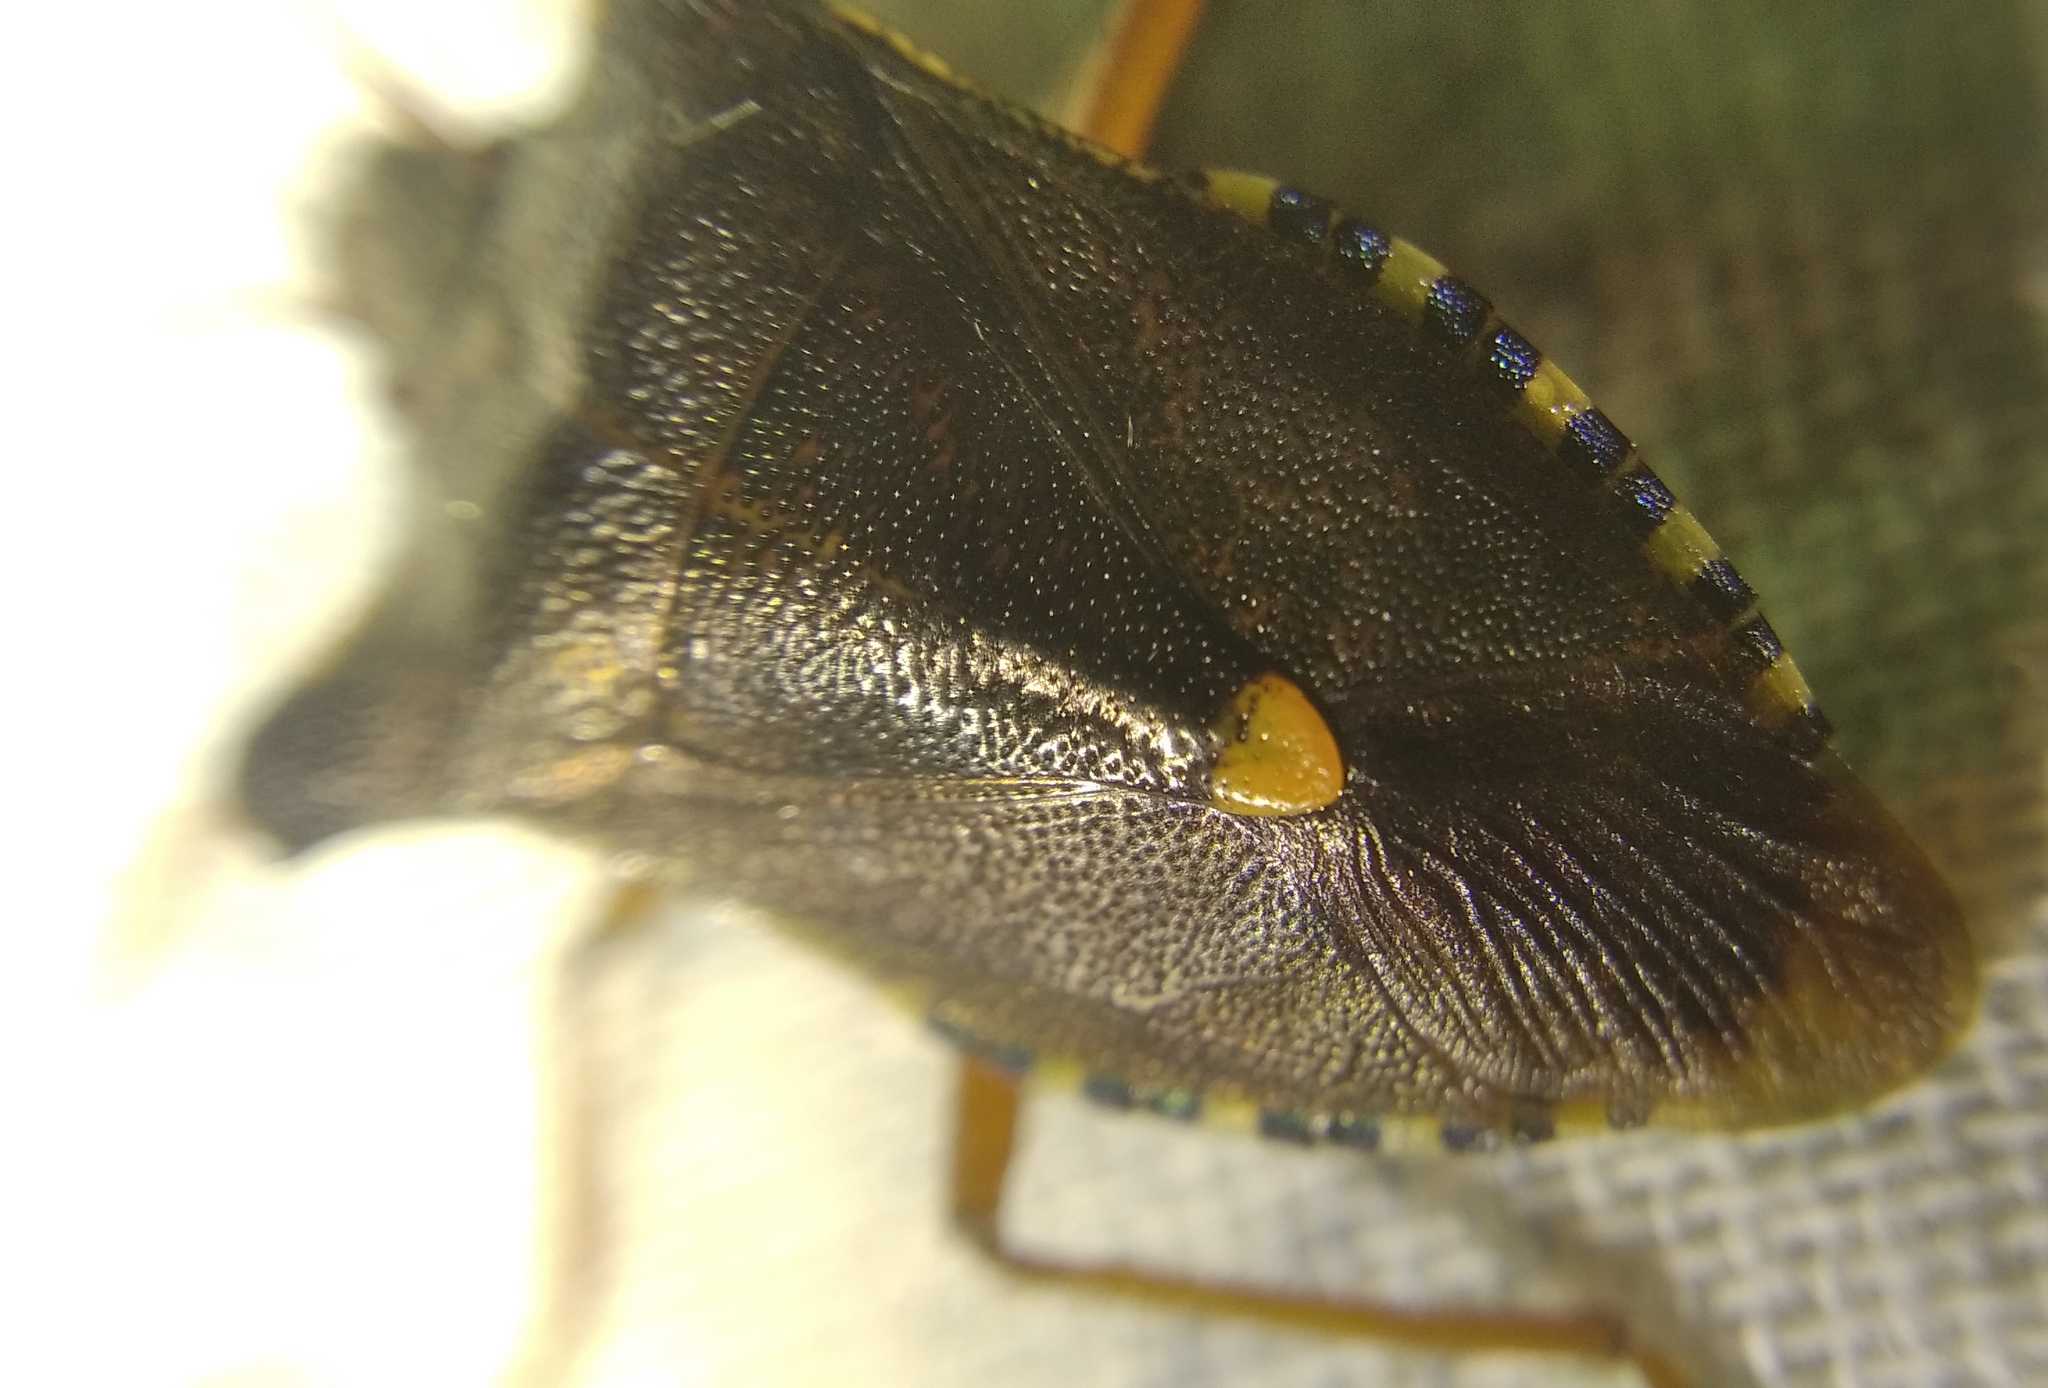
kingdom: Animalia
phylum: Arthropoda
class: Insecta
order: Hemiptera
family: Pentatomidae
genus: Pentatoma
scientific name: Pentatoma rufipes
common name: Forest bug
